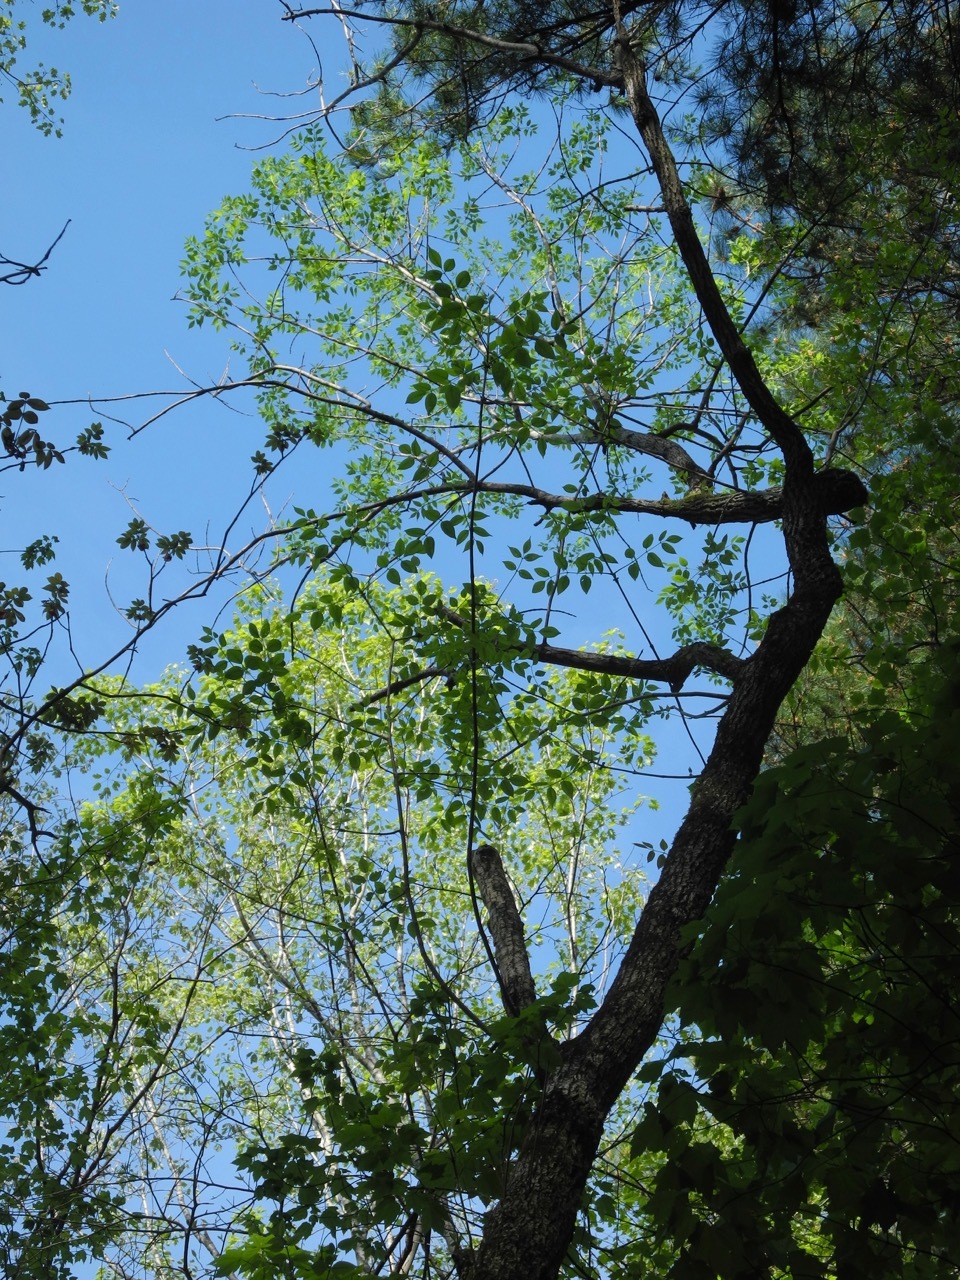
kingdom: Animalia
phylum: Arthropoda
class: Insecta
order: Coleoptera
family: Buprestidae
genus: Agrilus
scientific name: Agrilus planipennis
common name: Emerald ash borer
